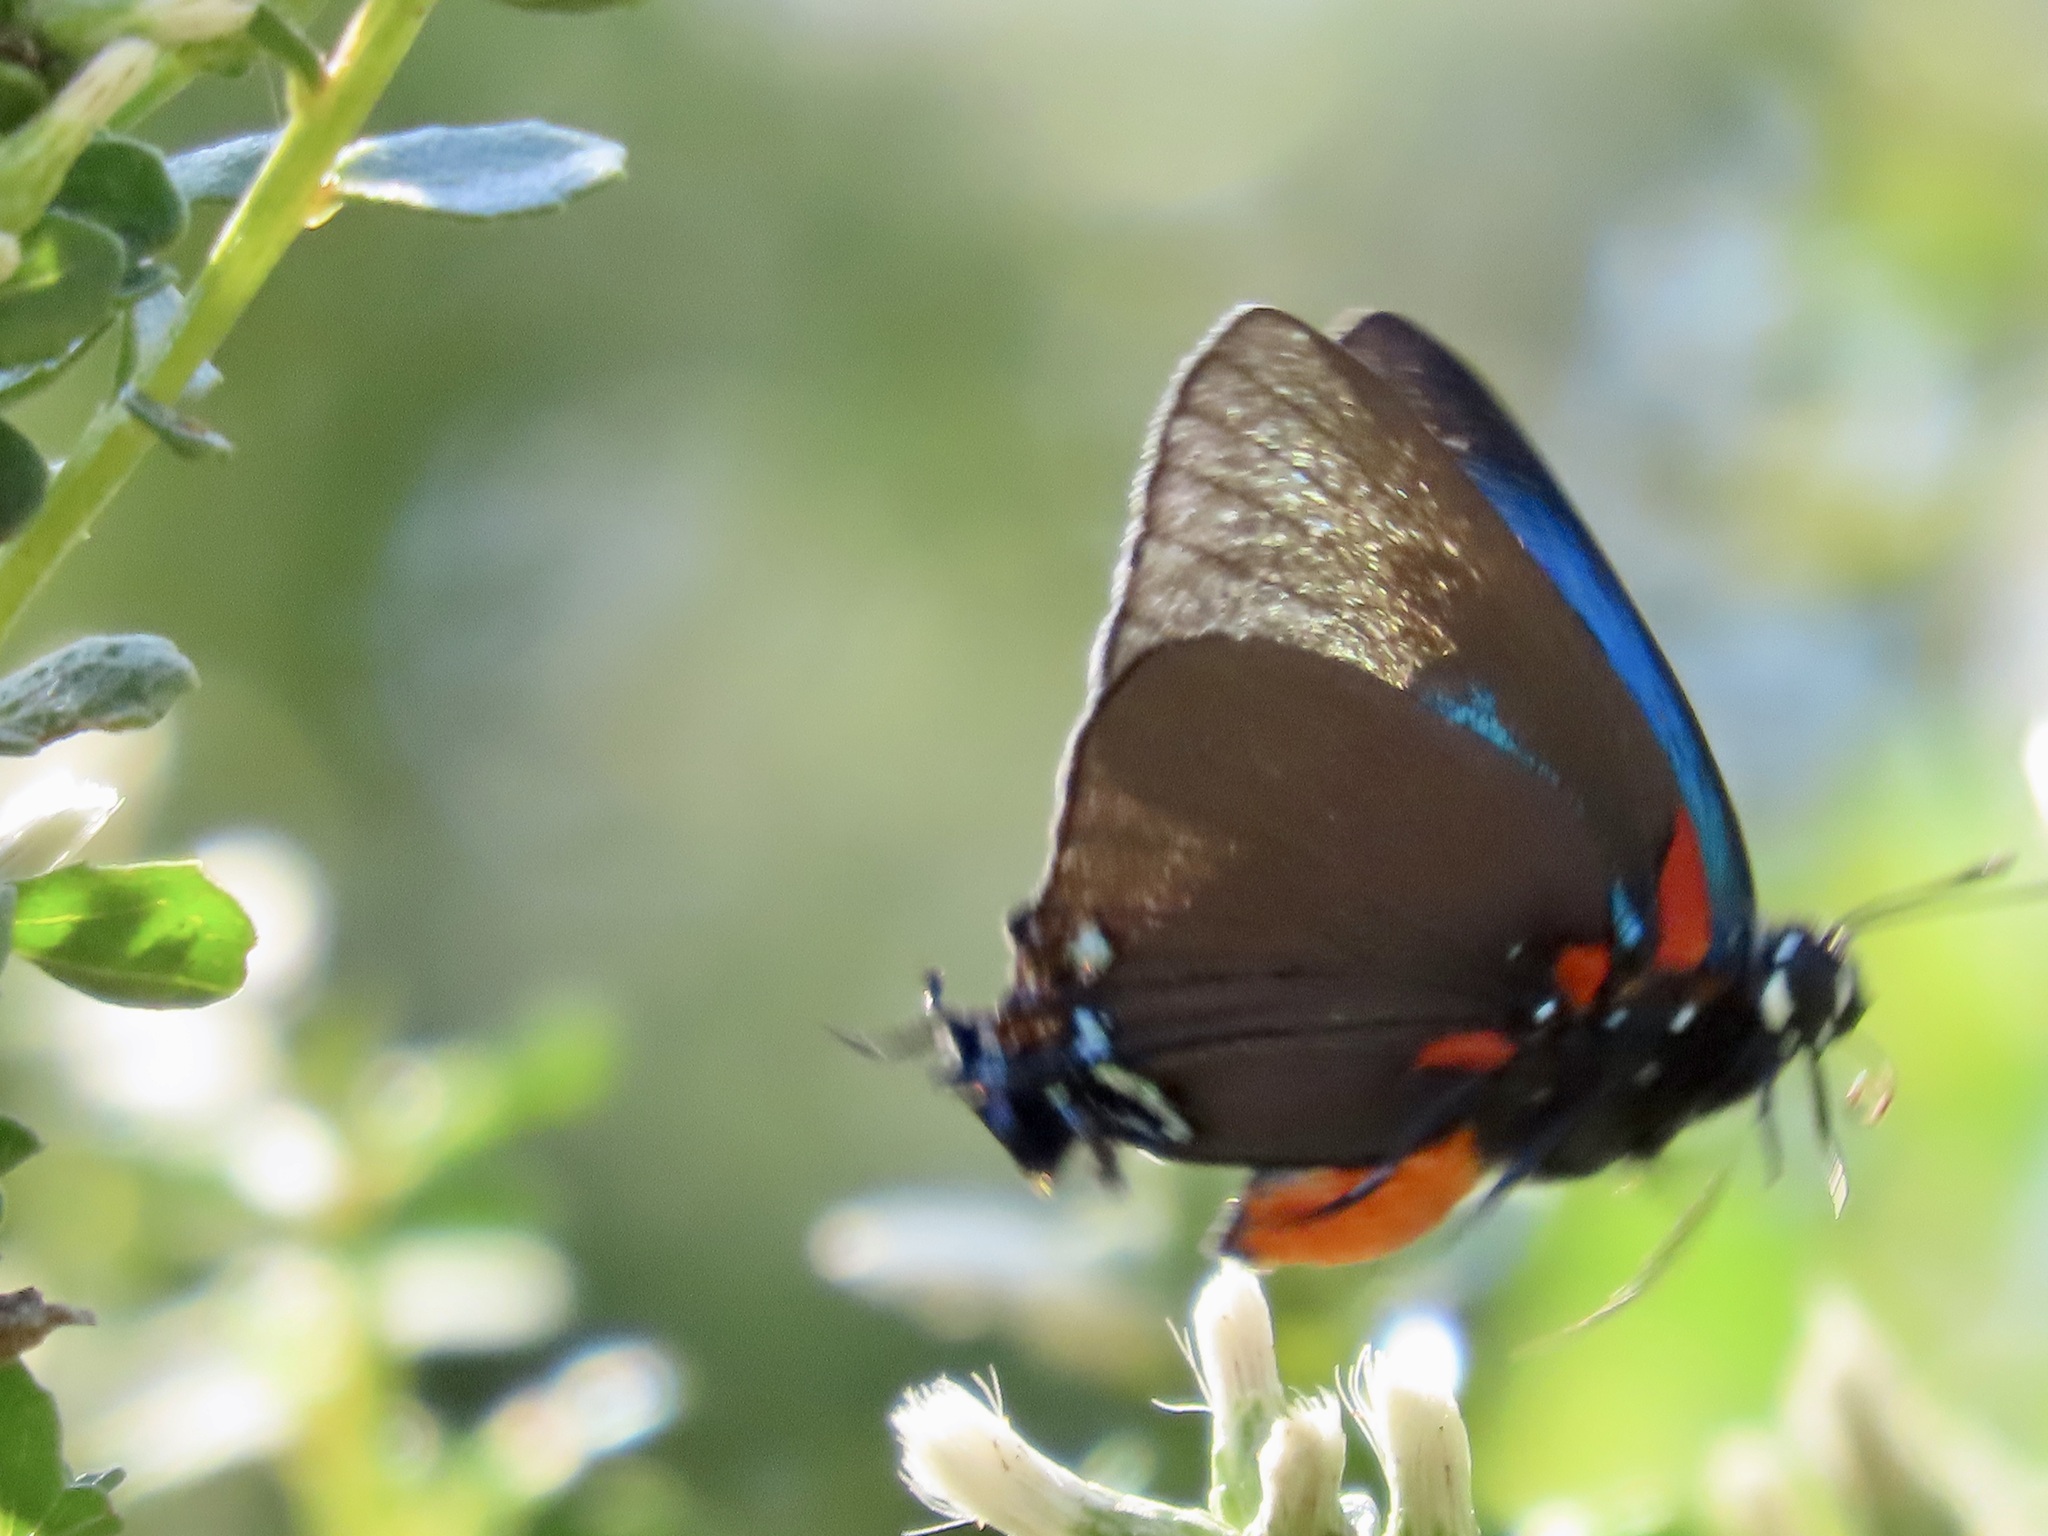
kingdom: Animalia
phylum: Arthropoda
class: Insecta
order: Lepidoptera
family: Lycaenidae
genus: Atlides
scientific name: Atlides halesus
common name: Great purple hairstreak
